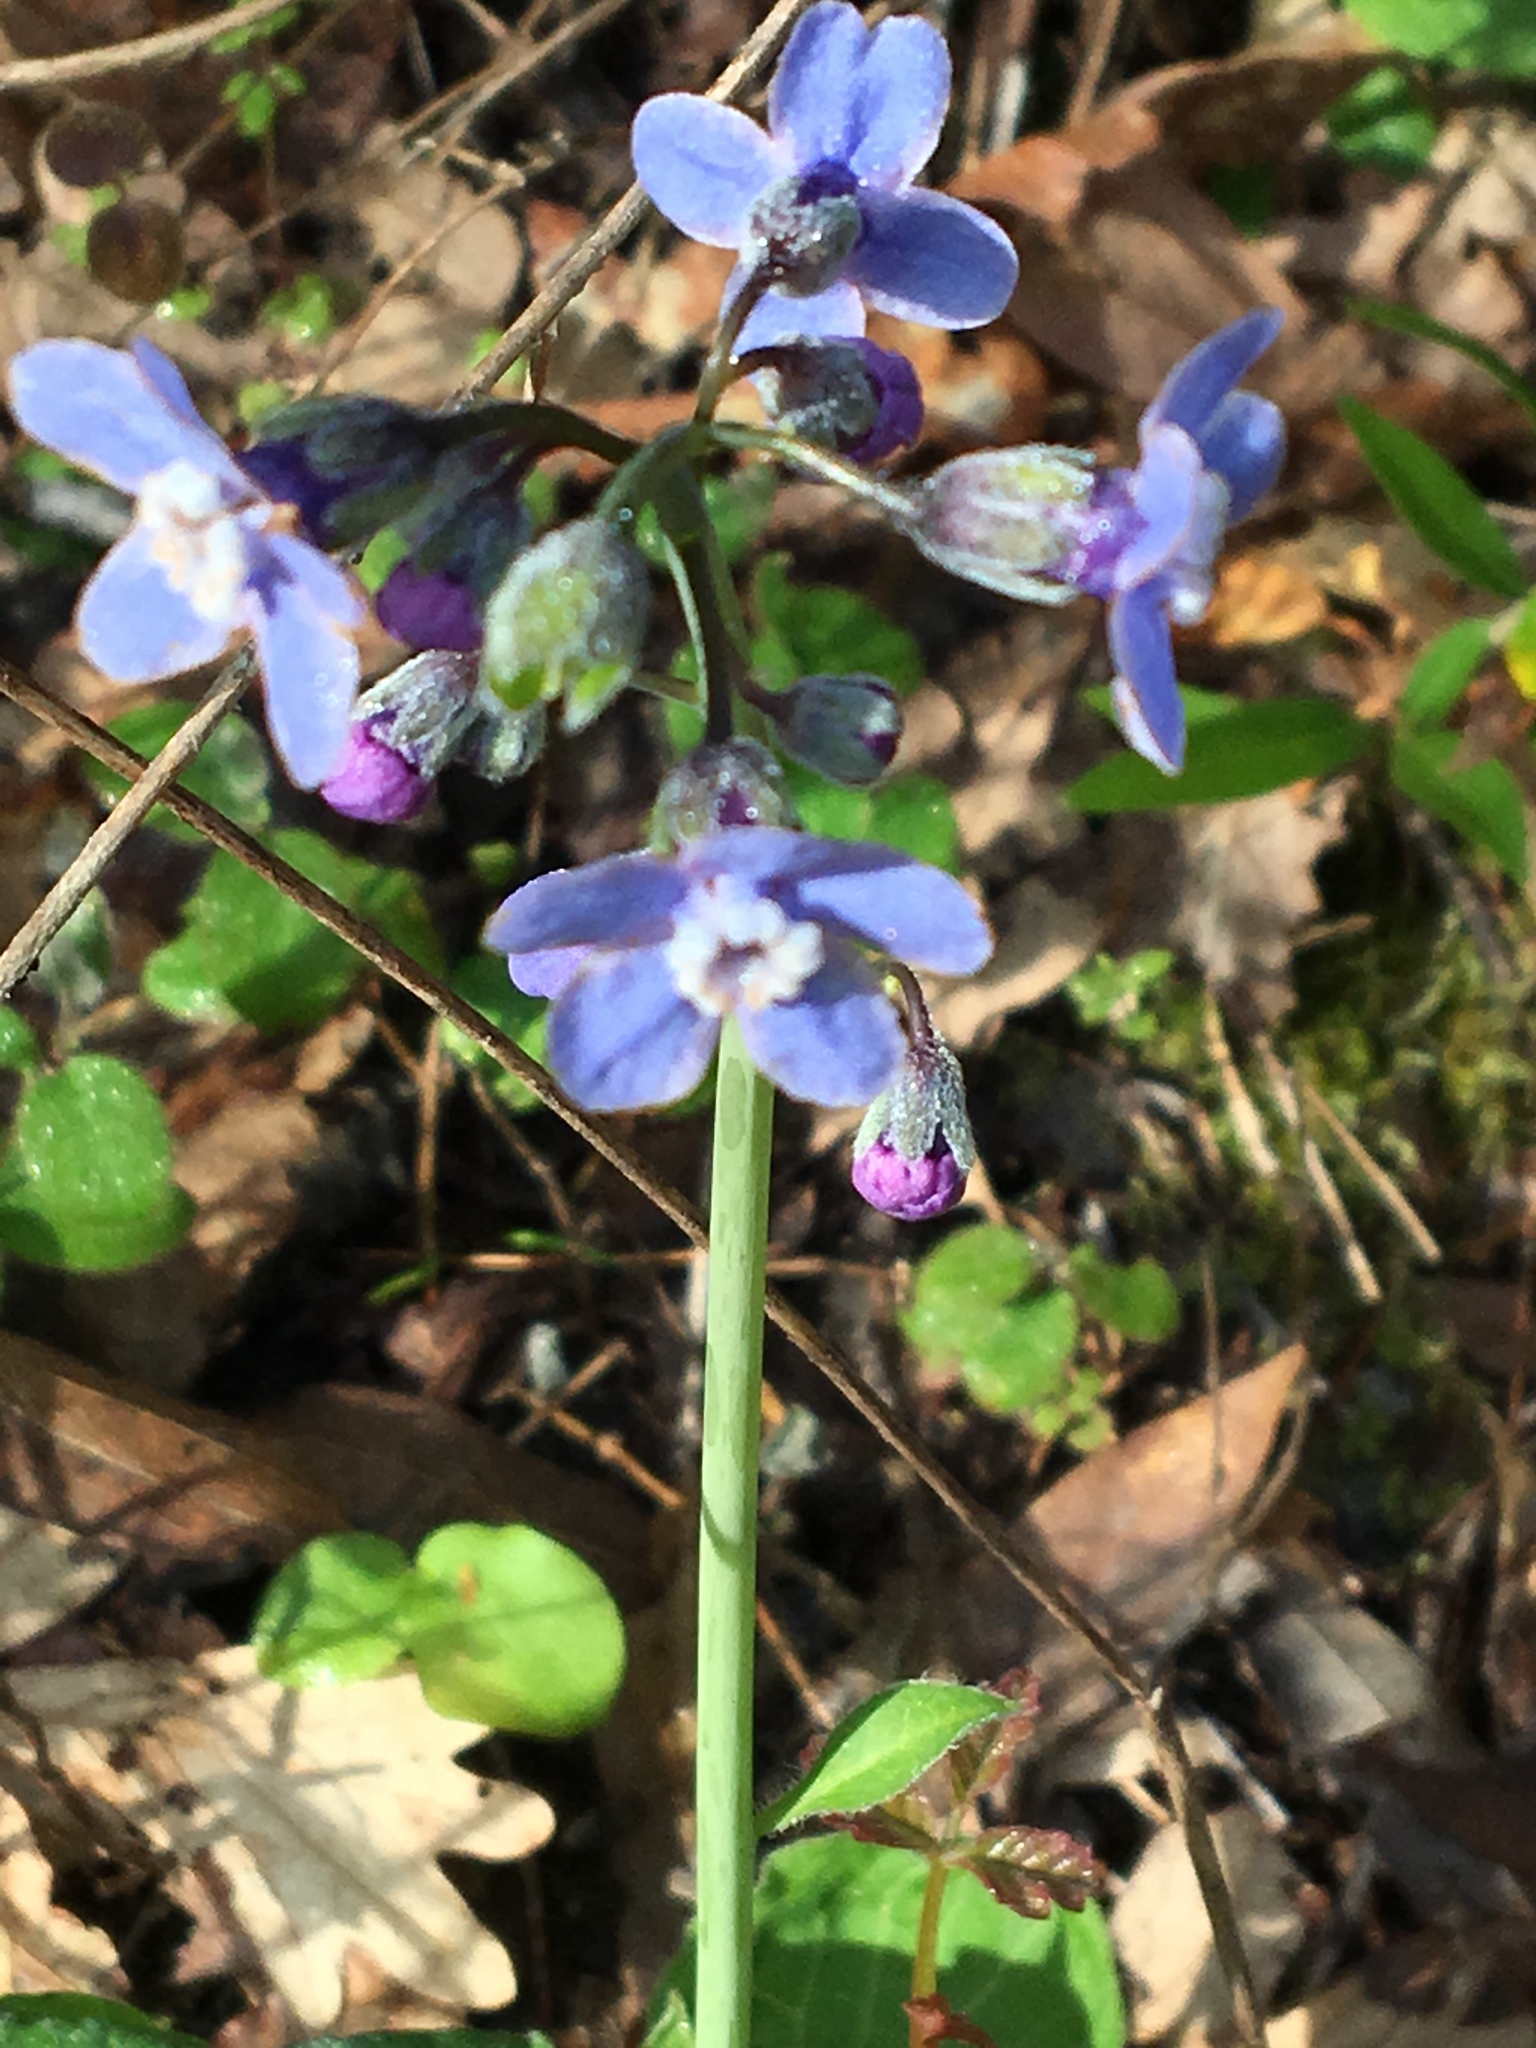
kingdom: Plantae
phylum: Tracheophyta
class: Magnoliopsida
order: Boraginales
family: Boraginaceae
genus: Adelinia
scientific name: Adelinia grande
